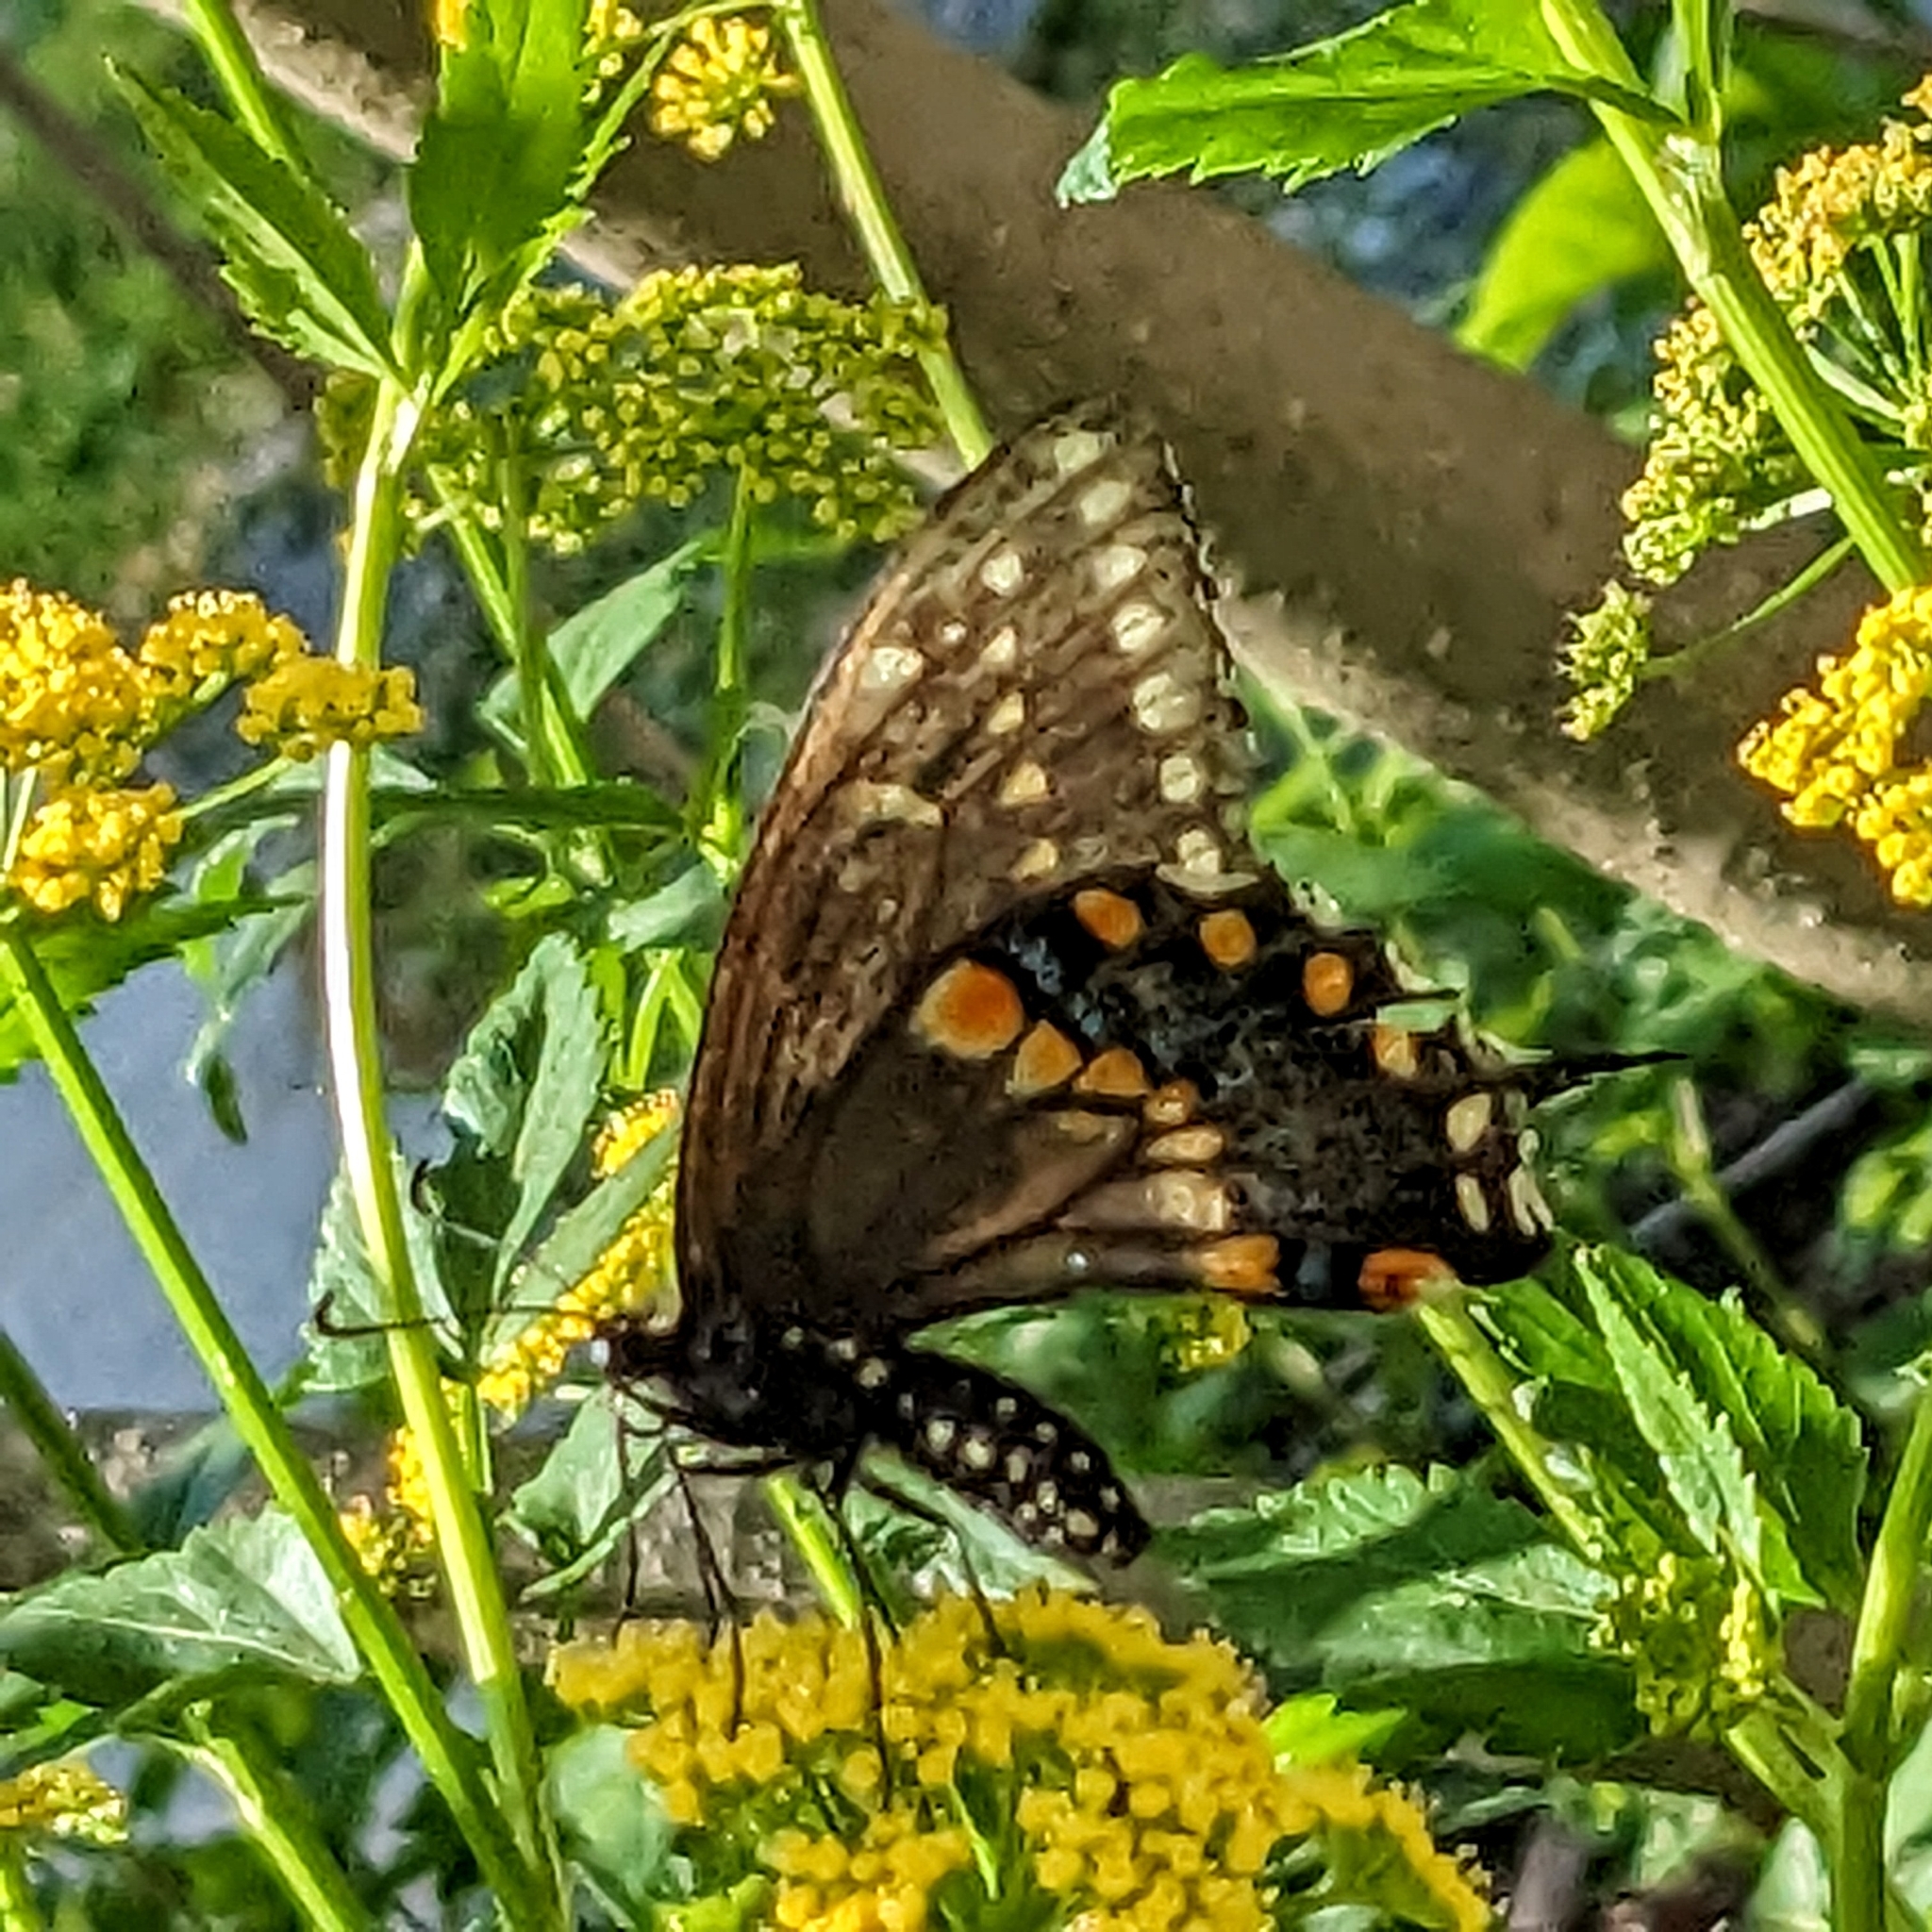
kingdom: Animalia
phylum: Arthropoda
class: Insecta
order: Lepidoptera
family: Papilionidae
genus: Papilio
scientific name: Papilio polyxenes
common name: Black swallowtail
